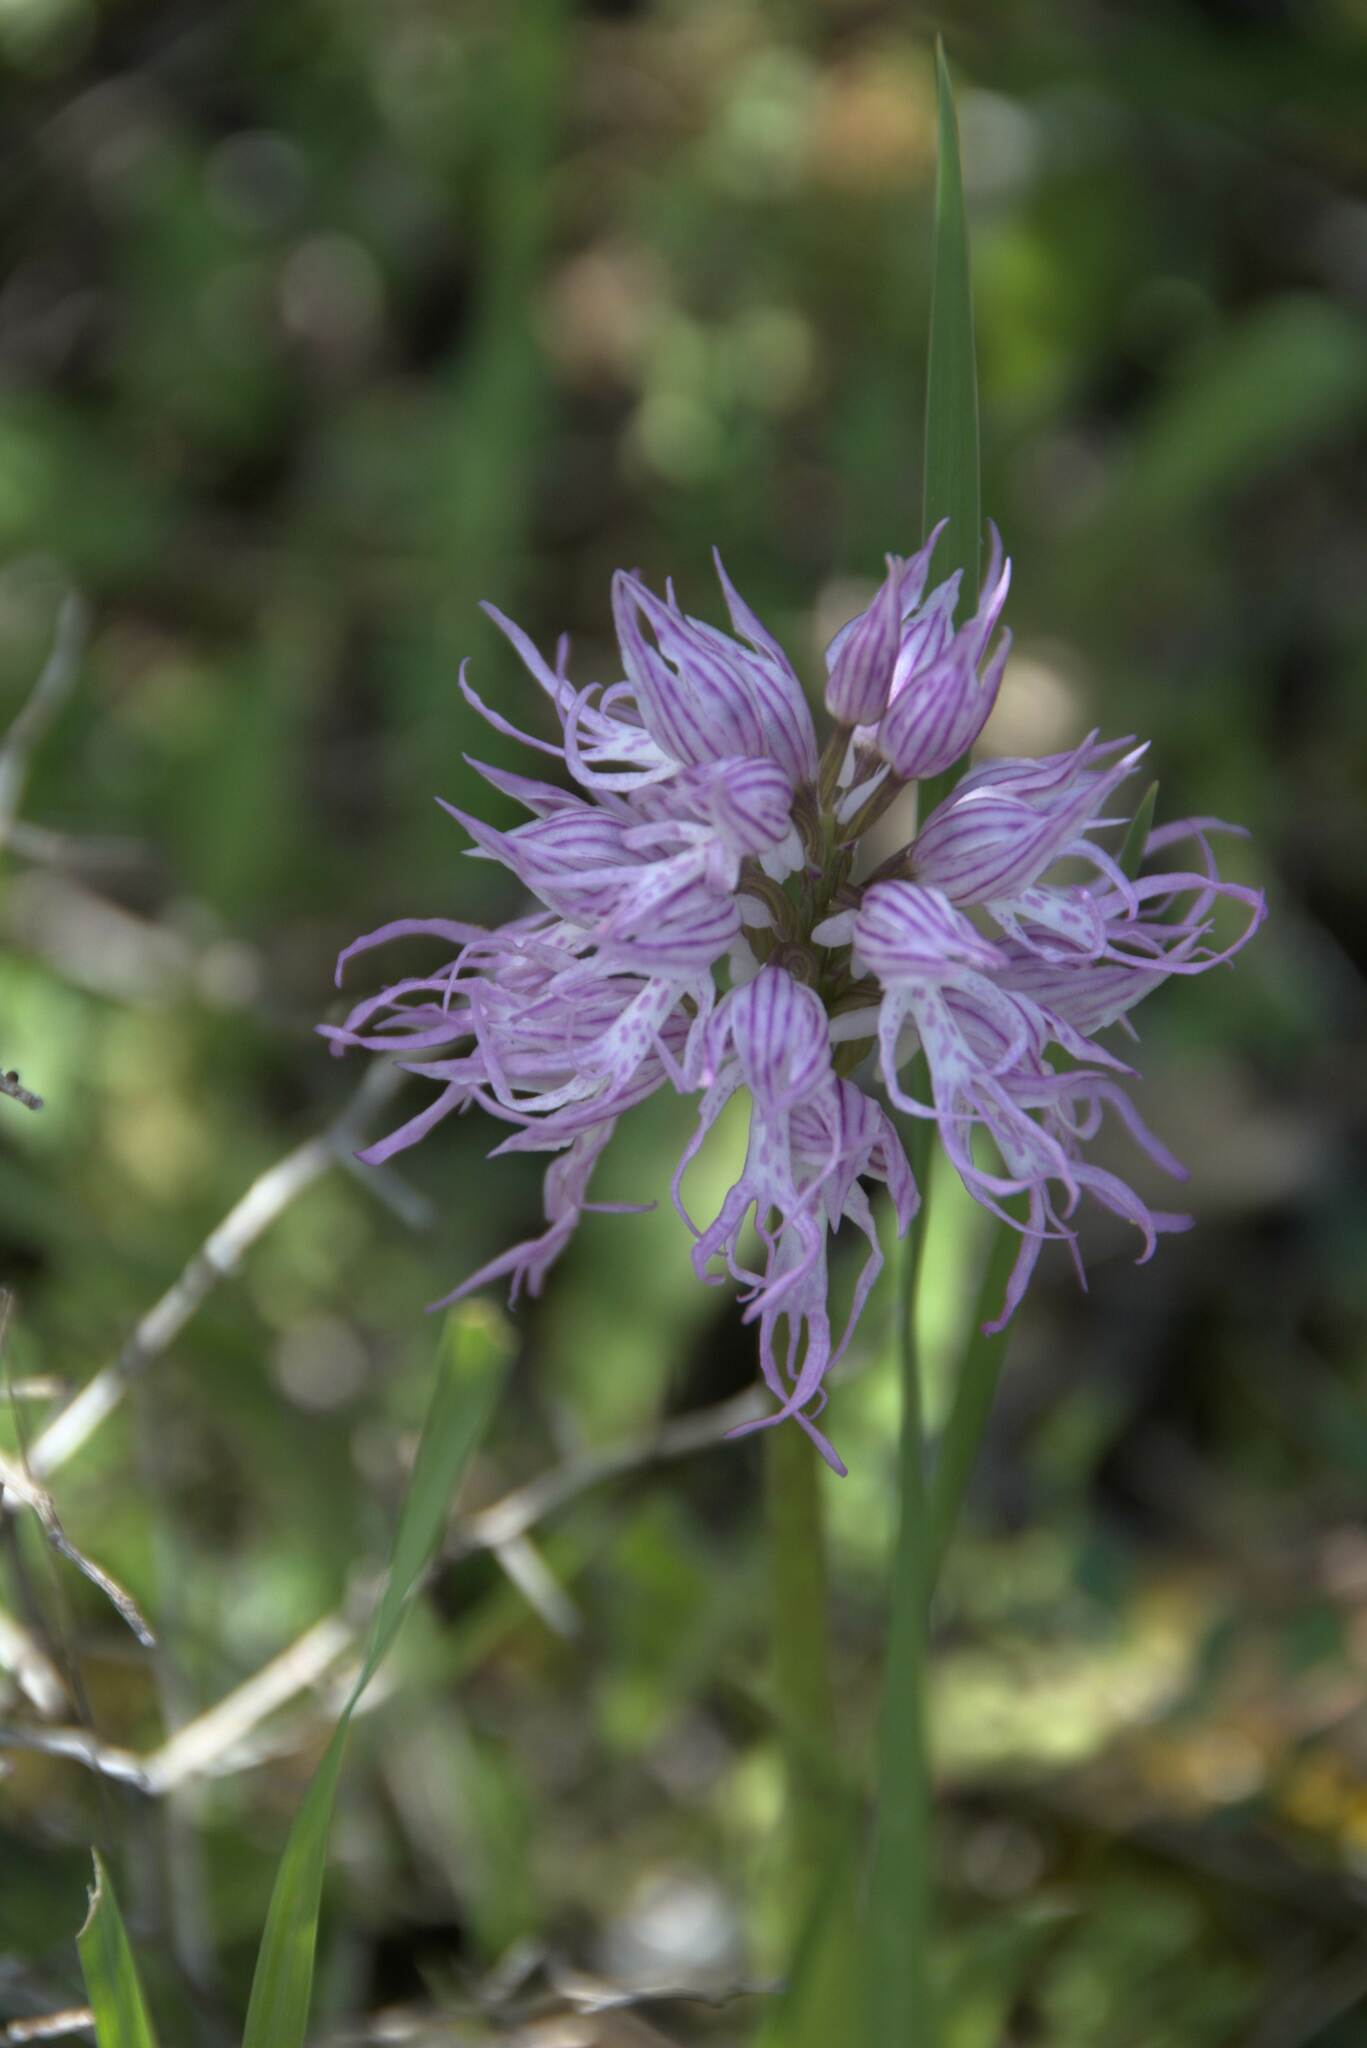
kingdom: Plantae
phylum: Tracheophyta
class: Liliopsida
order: Asparagales
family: Orchidaceae
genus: Orchis
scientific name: Orchis italica
